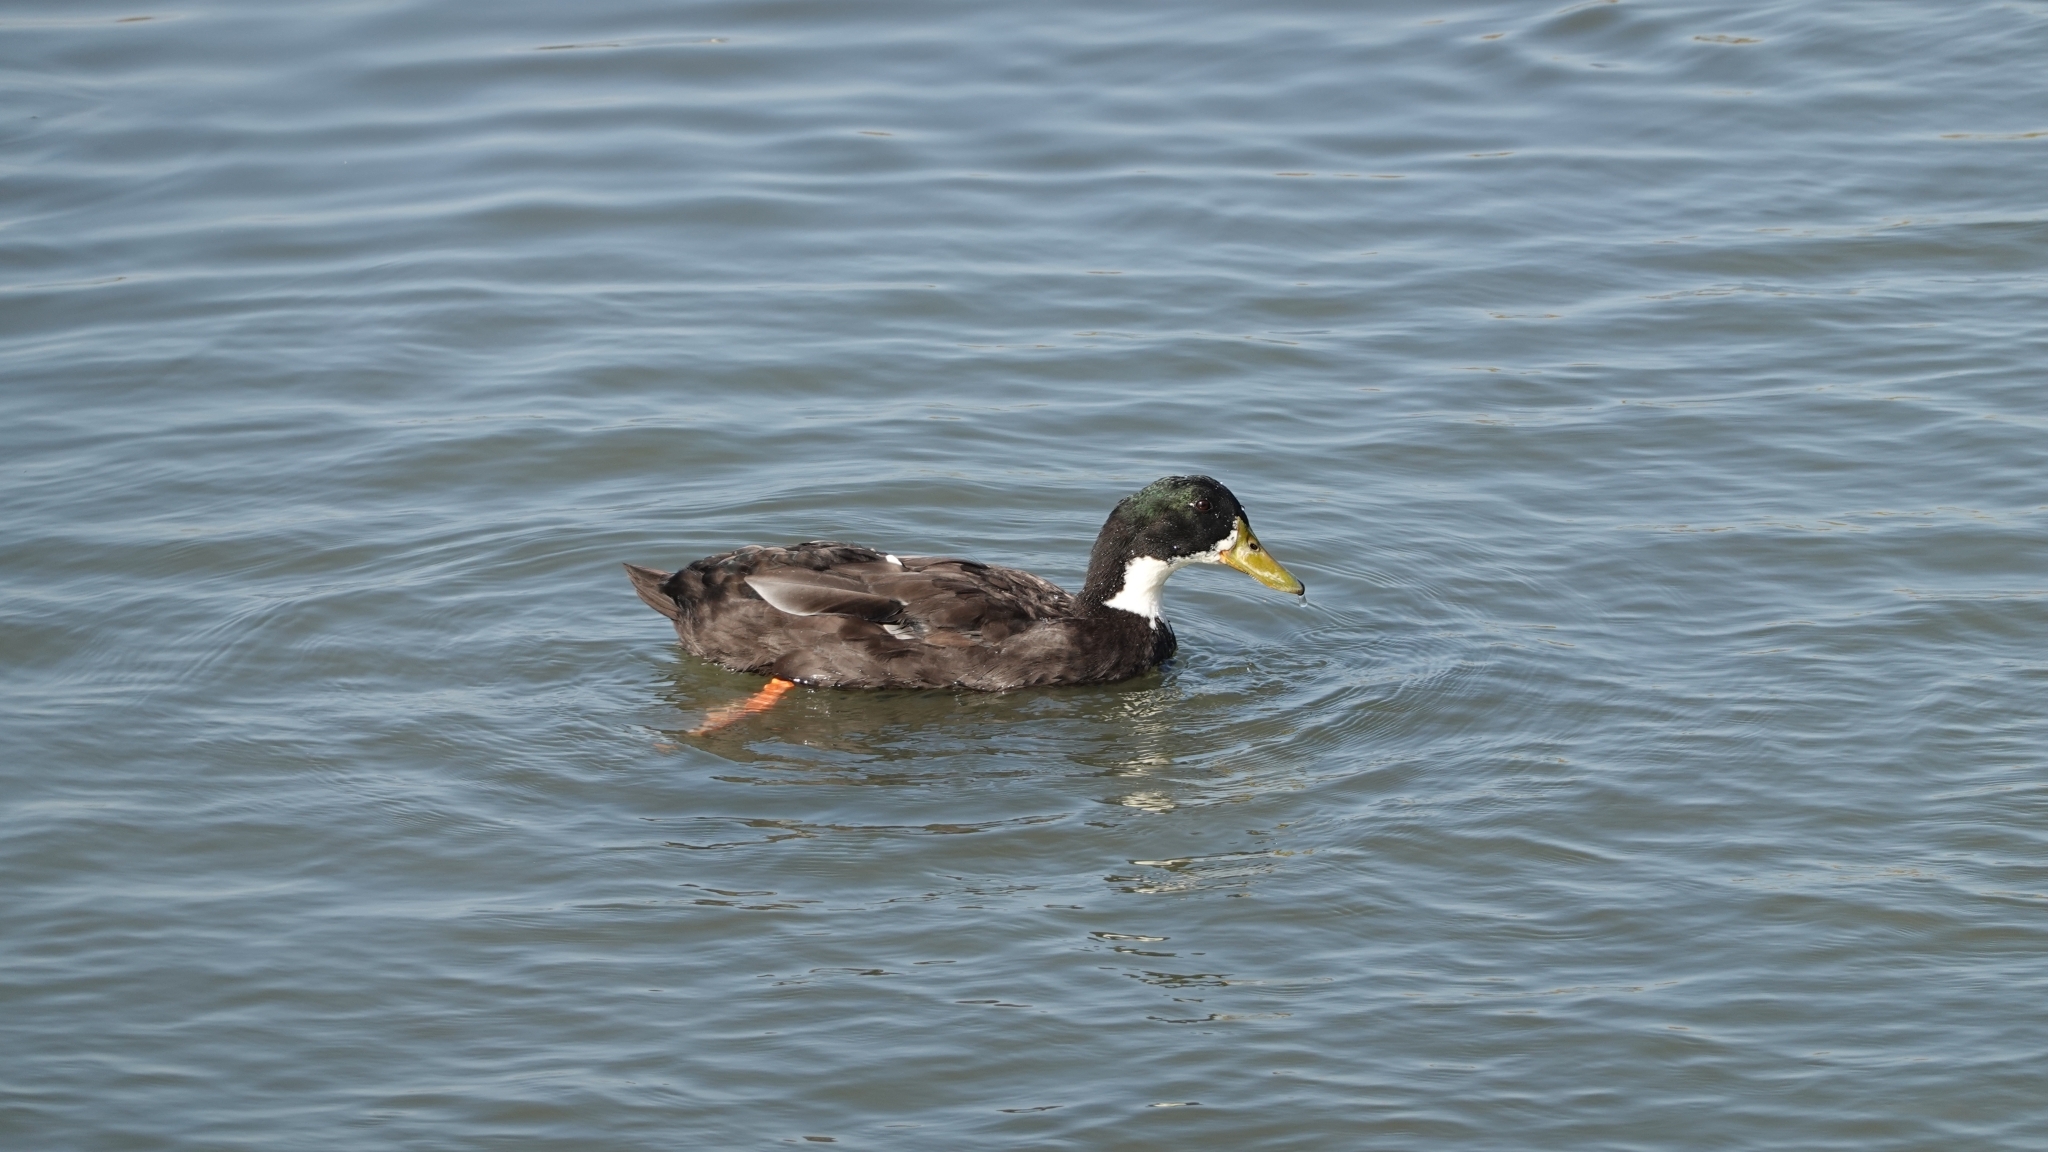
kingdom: Animalia
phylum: Chordata
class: Aves
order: Anseriformes
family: Anatidae
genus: Anas
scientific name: Anas platyrhynchos
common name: Mallard
